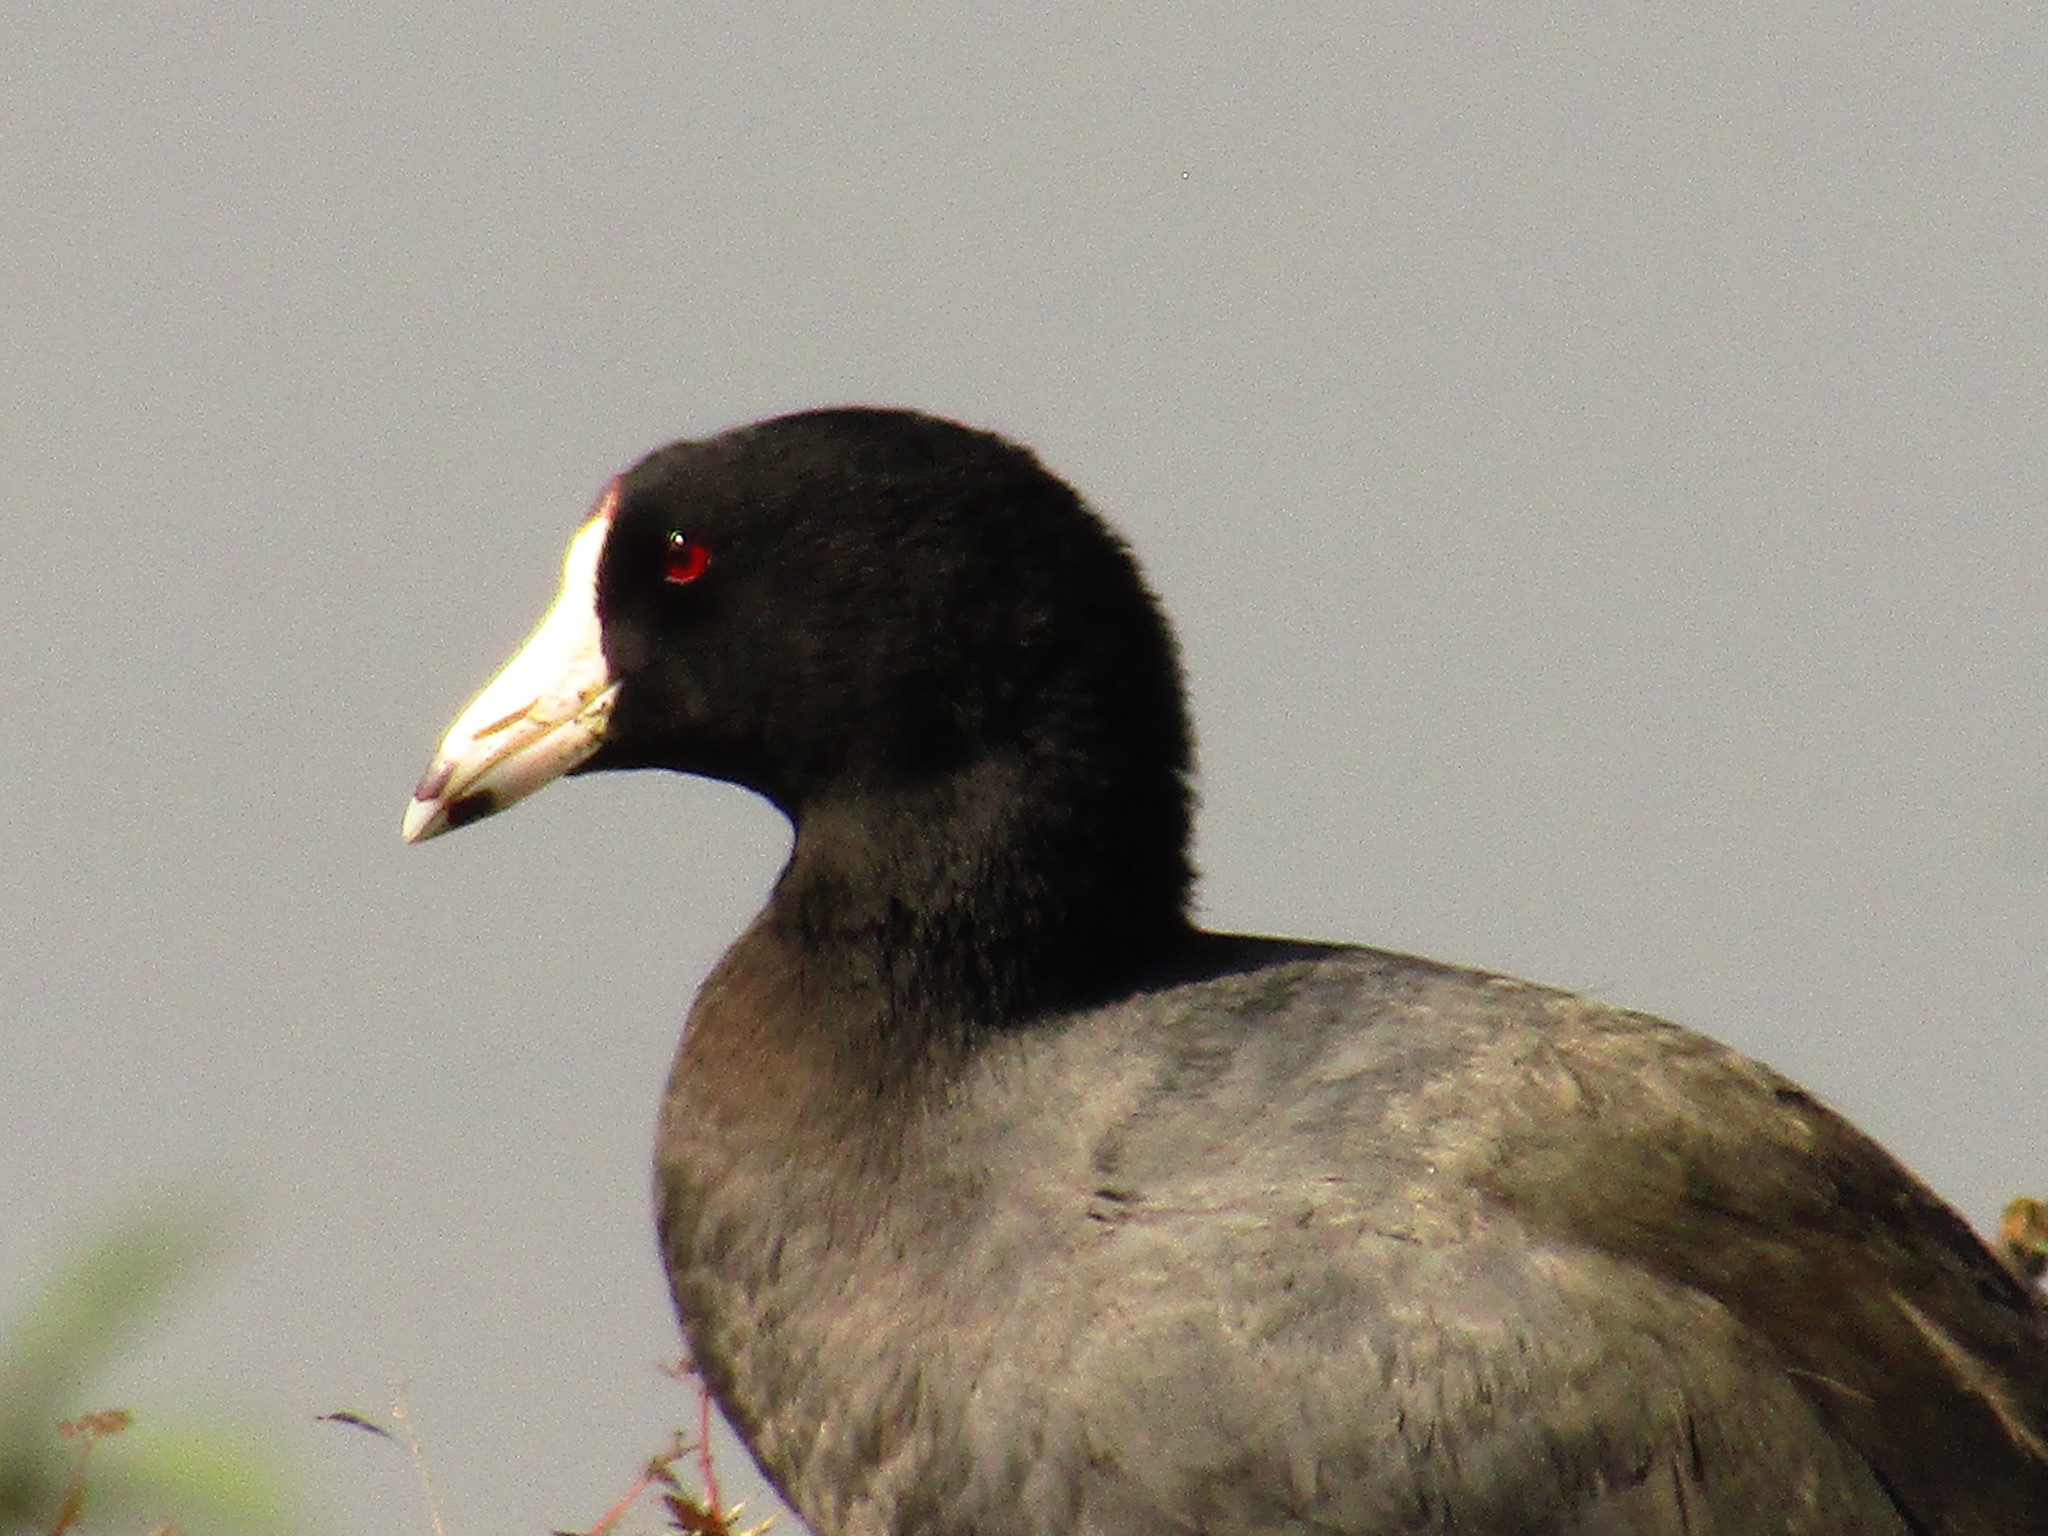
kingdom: Animalia
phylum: Chordata
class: Aves
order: Gruiformes
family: Rallidae
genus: Fulica
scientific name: Fulica americana
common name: American coot
